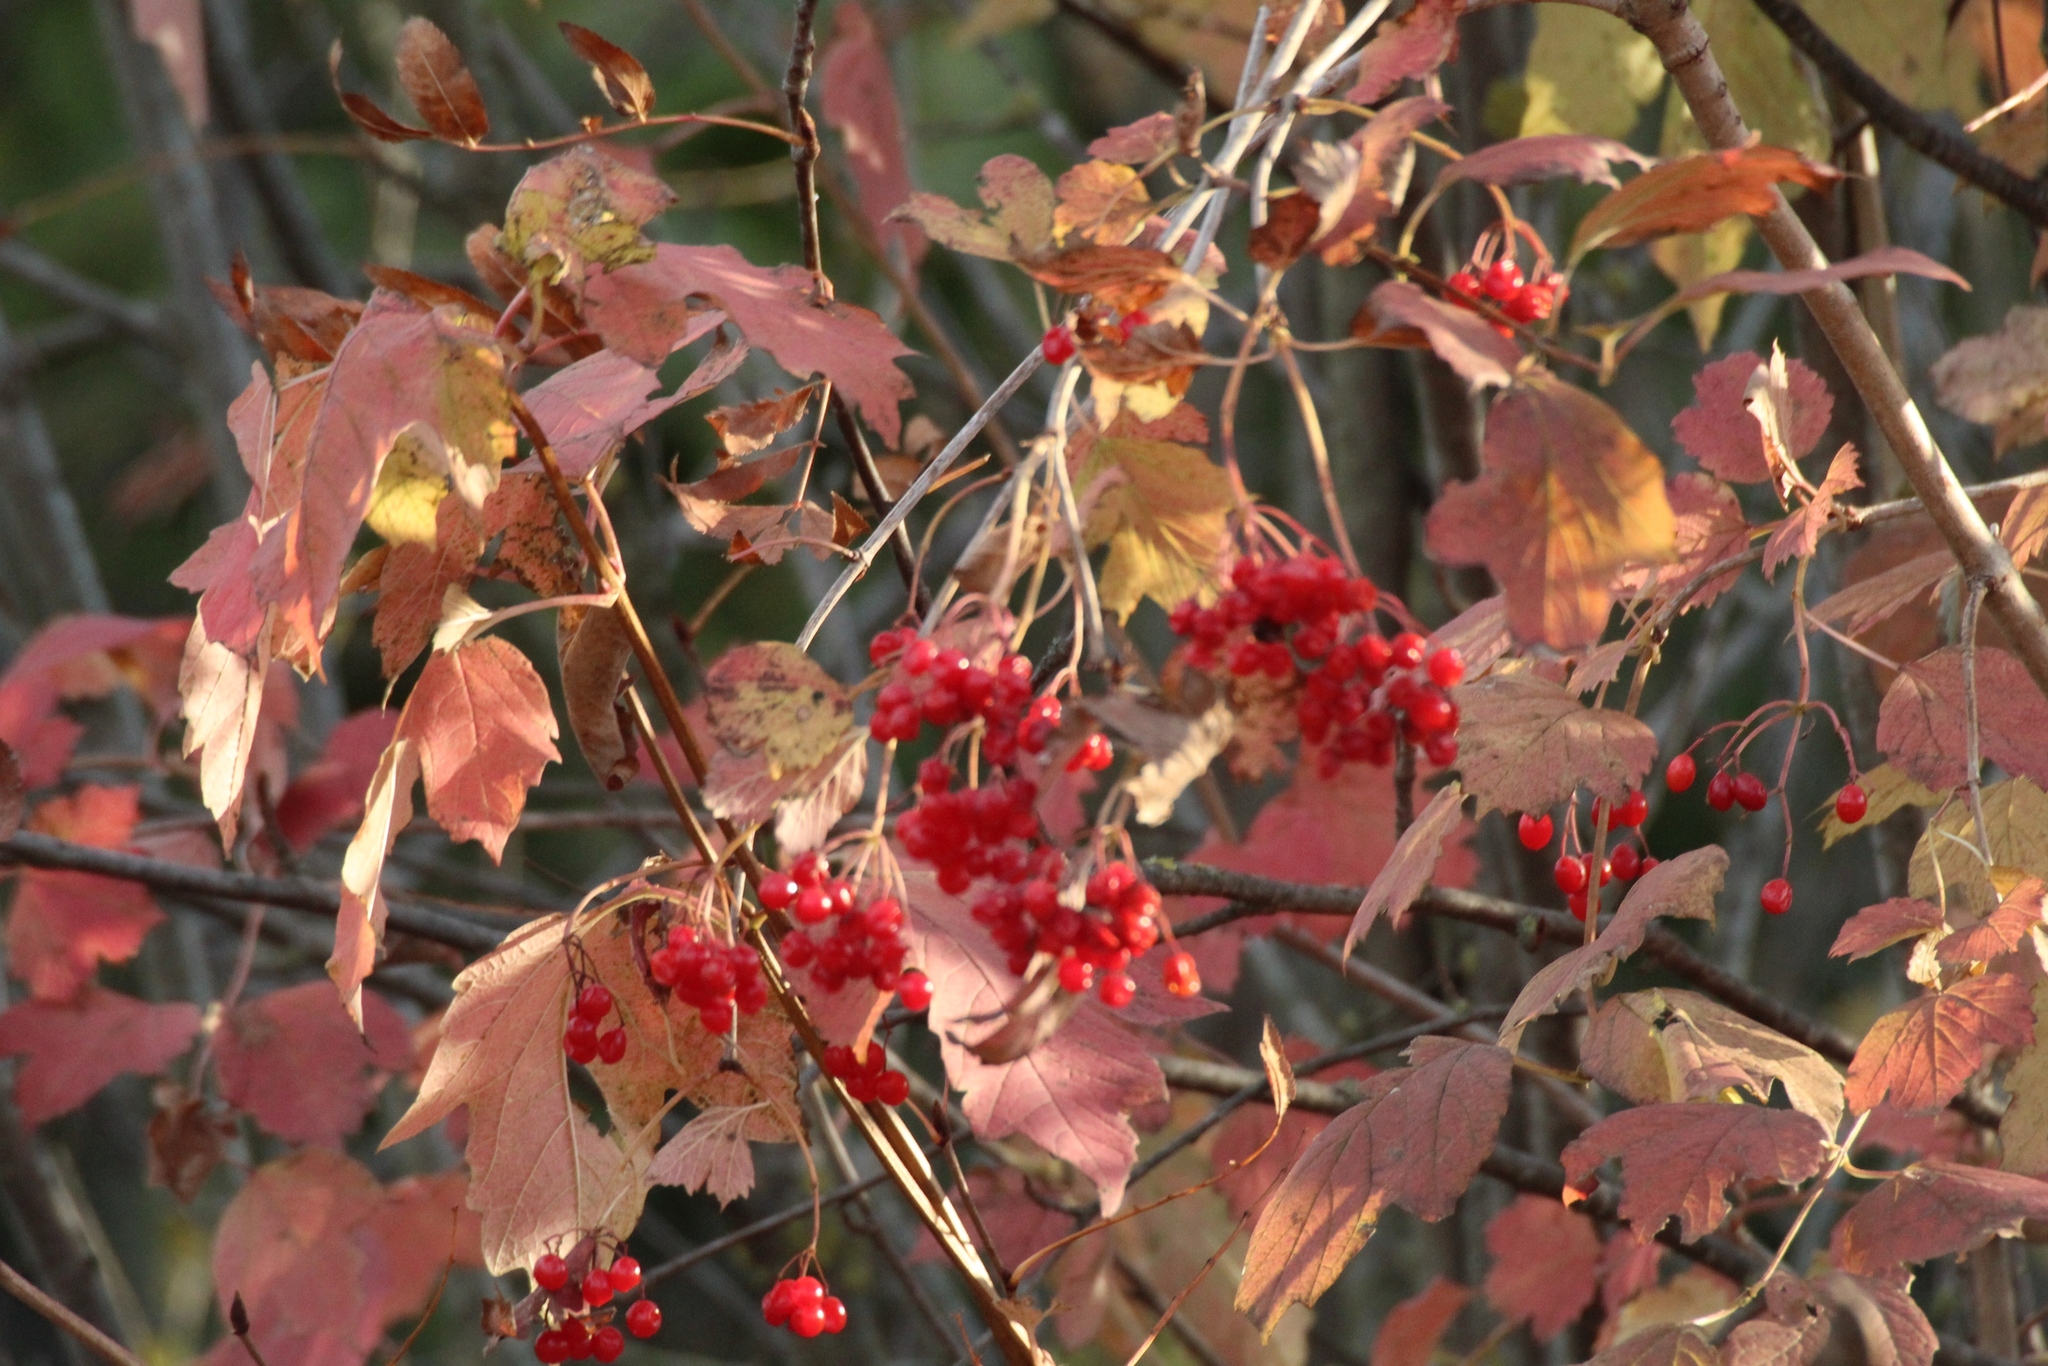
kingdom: Plantae
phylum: Tracheophyta
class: Magnoliopsida
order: Dipsacales
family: Viburnaceae
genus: Viburnum
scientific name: Viburnum opulus
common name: Guelder-rose
